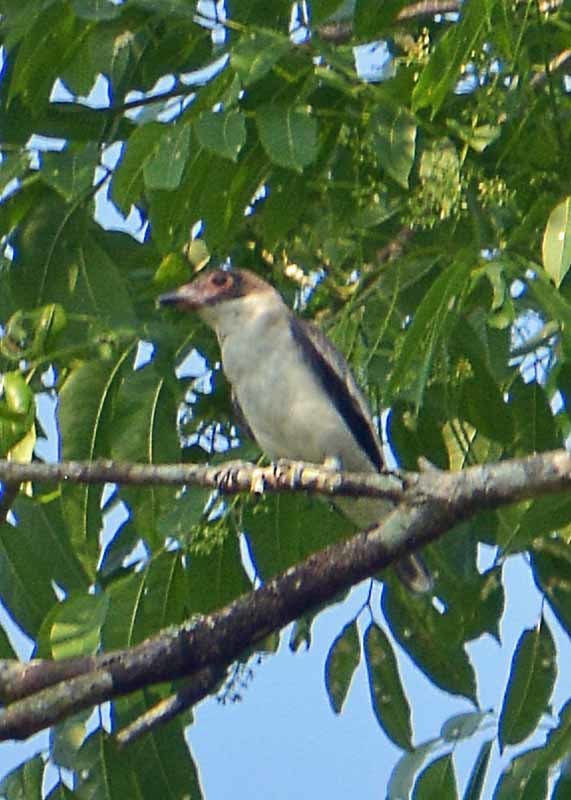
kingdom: Animalia
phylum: Chordata
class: Aves
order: Passeriformes
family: Cotingidae
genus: Tityra
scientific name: Tityra semifasciata
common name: Masked tityra
